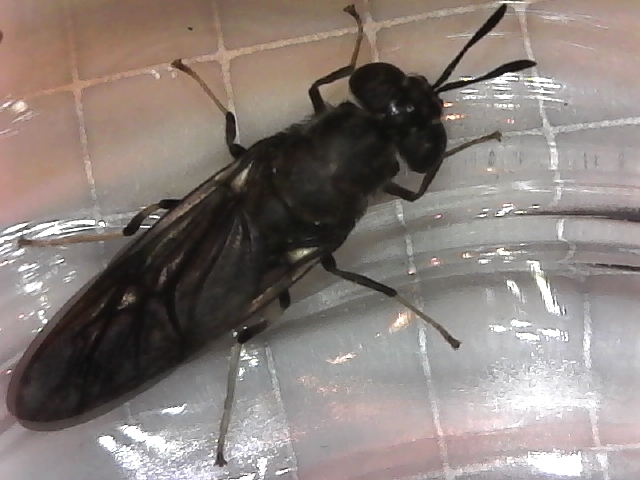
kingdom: Animalia
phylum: Arthropoda
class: Insecta
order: Diptera
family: Stratiomyidae
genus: Hermetia
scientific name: Hermetia illucens
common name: Black soldier fly
